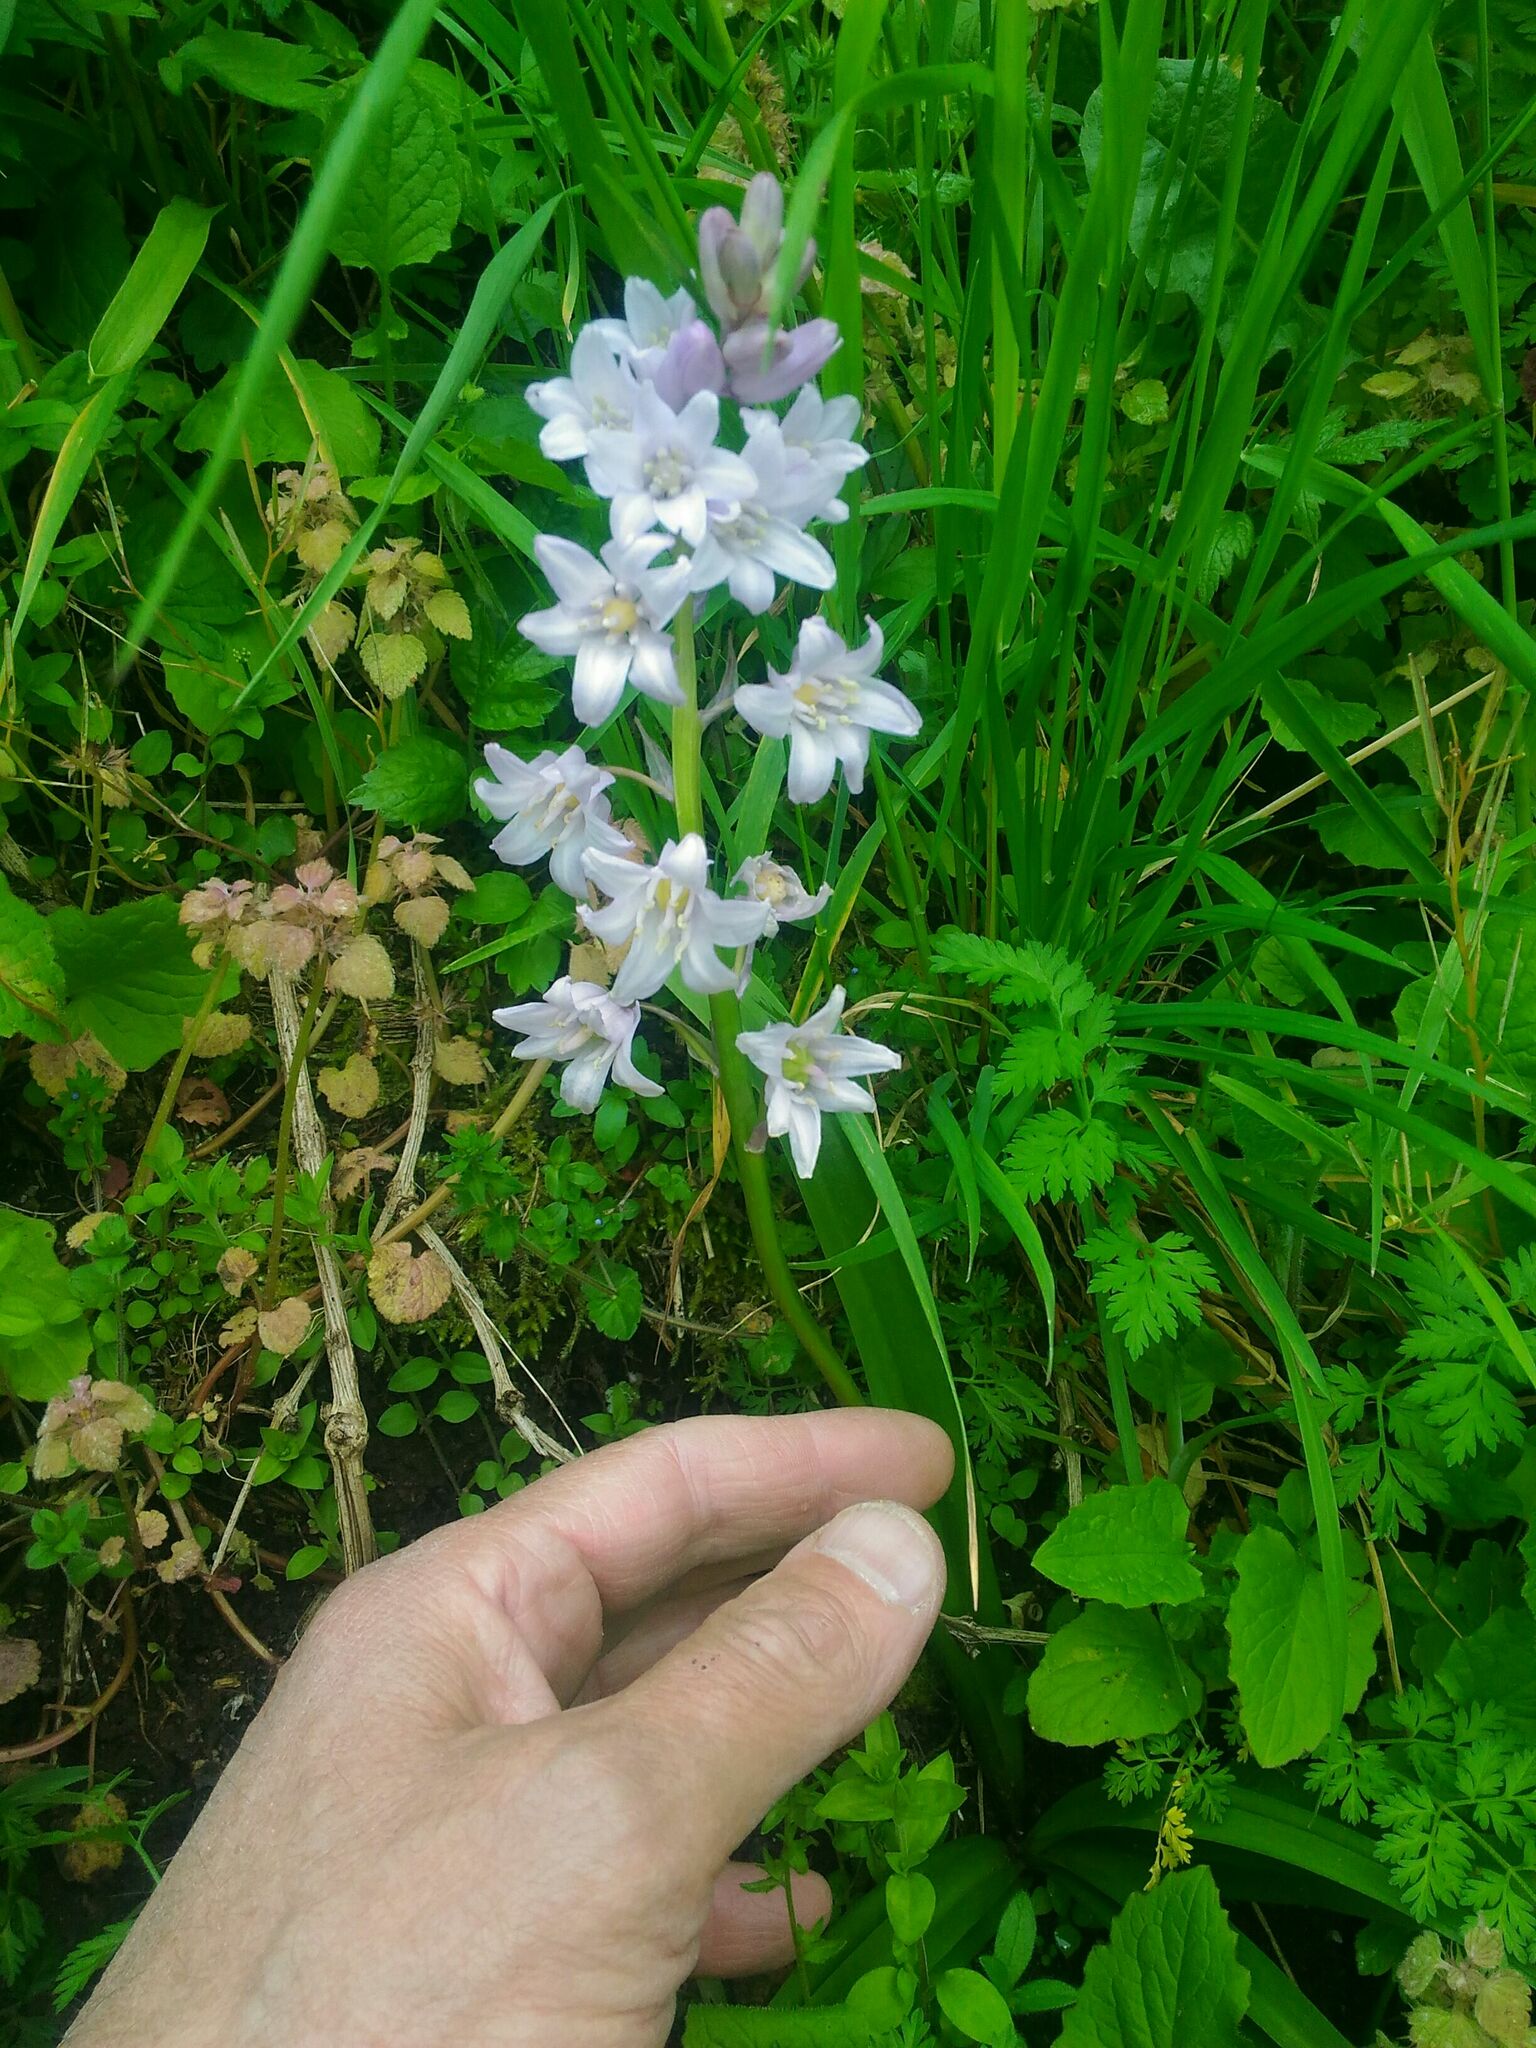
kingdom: Plantae
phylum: Tracheophyta
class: Liliopsida
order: Asparagales
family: Asparagaceae
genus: Hyacinthoides
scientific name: Hyacinthoides hispanica
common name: Spanish bluebell
